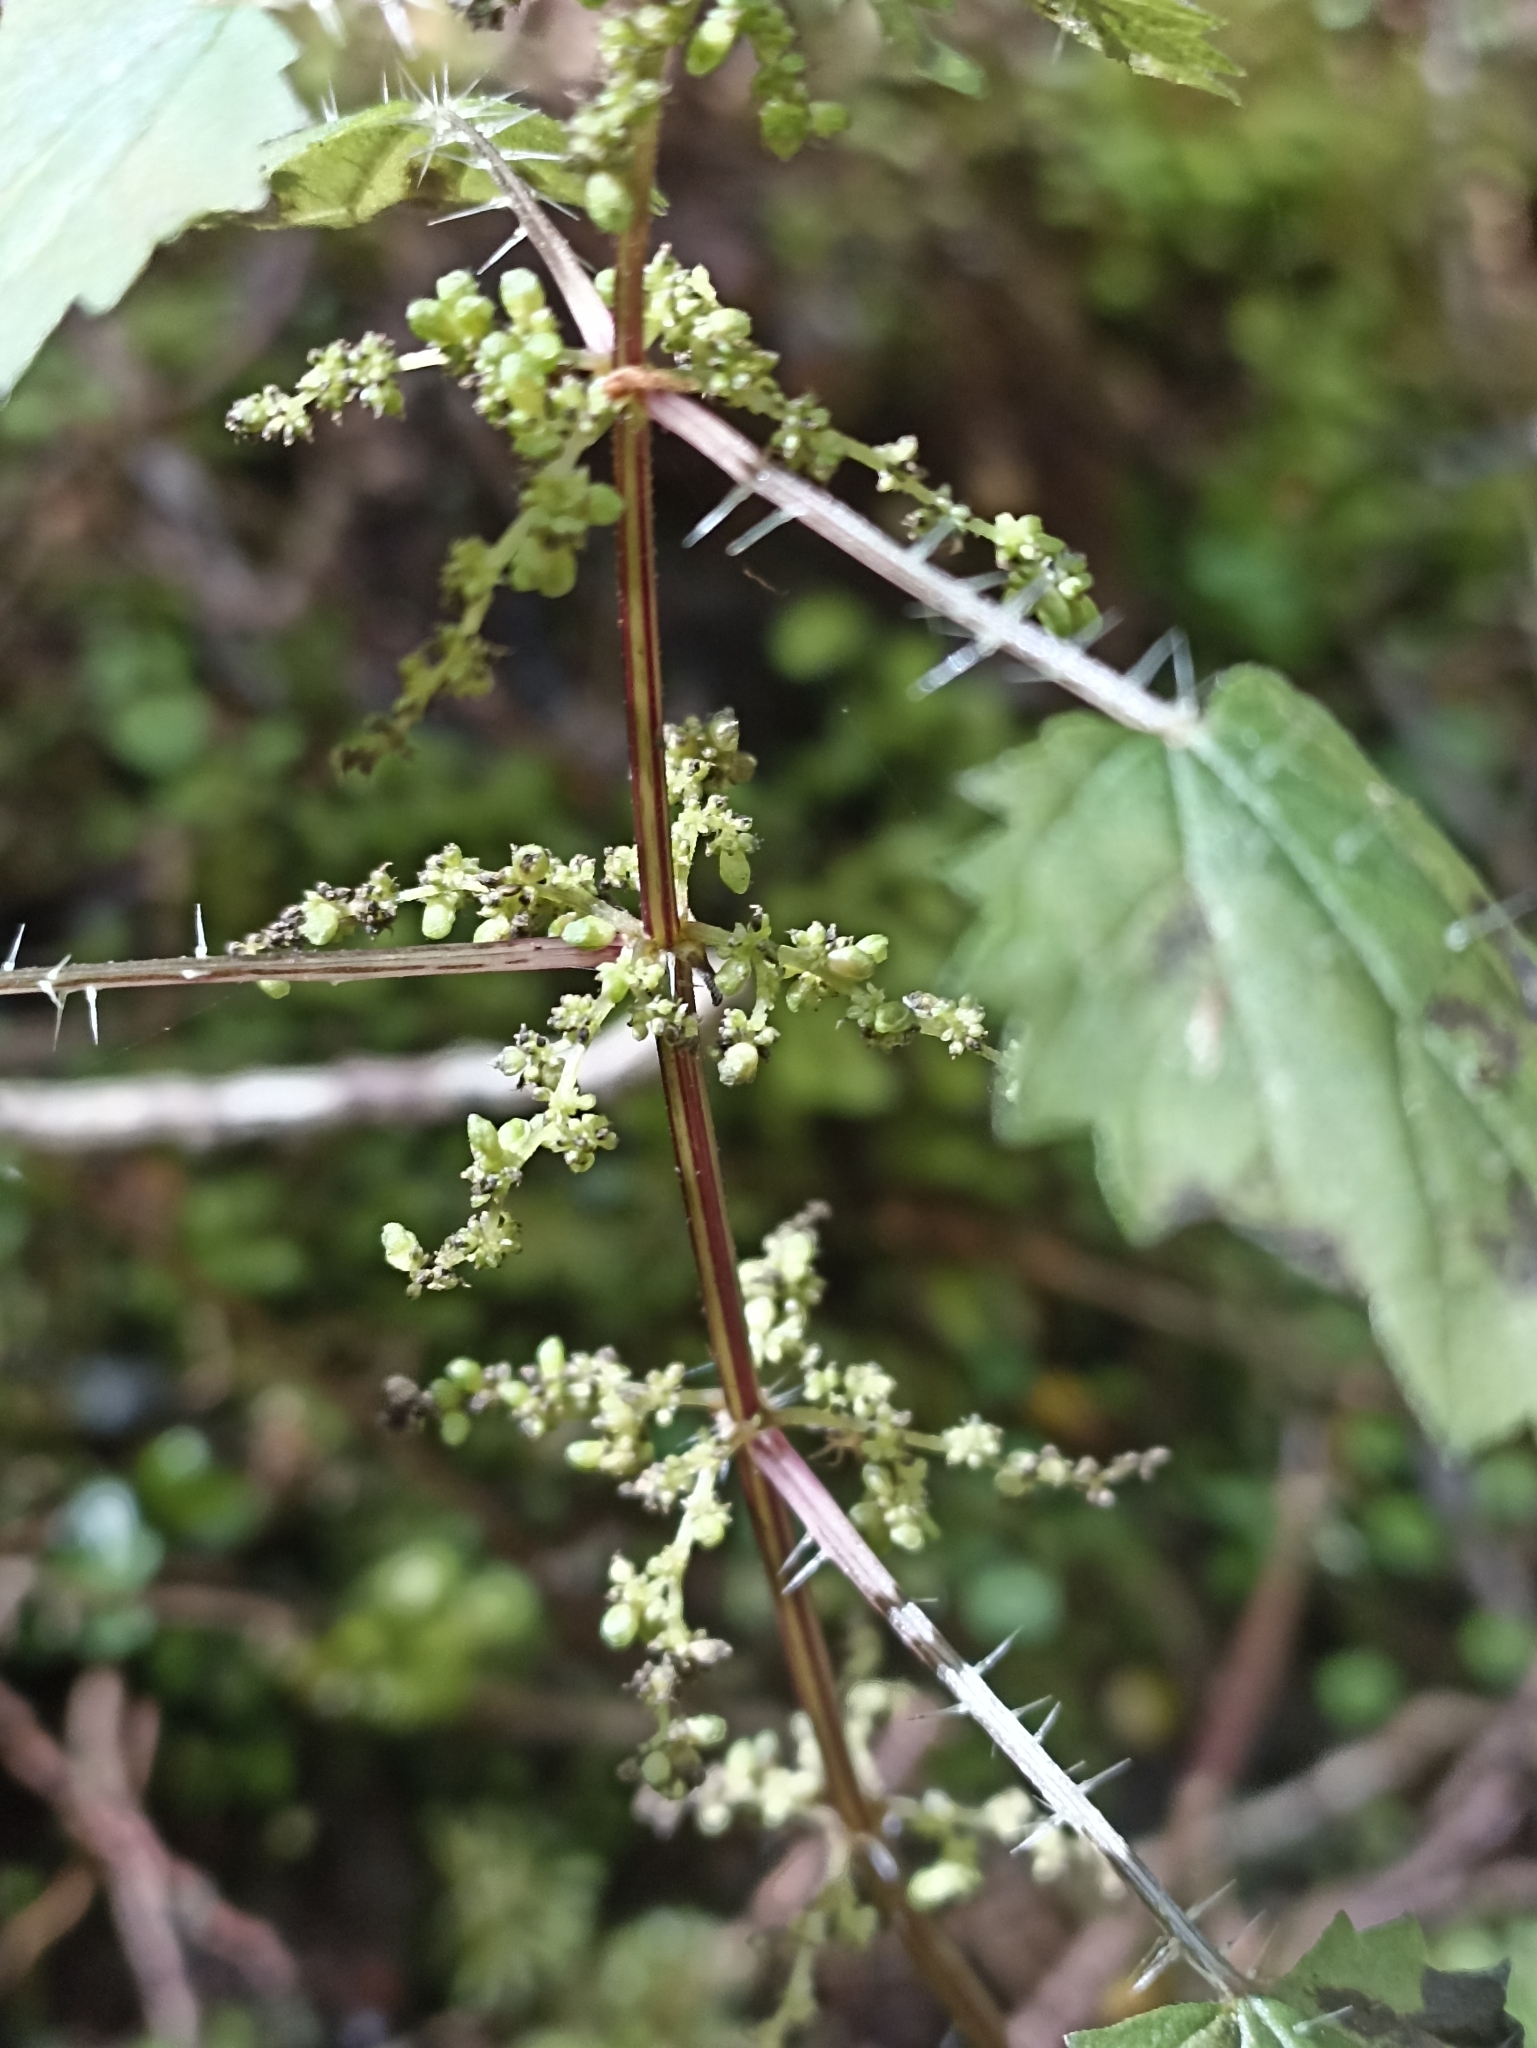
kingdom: Plantae
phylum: Tracheophyta
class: Magnoliopsida
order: Rosales
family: Urticaceae
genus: Urtica
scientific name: Urtica sykesii
